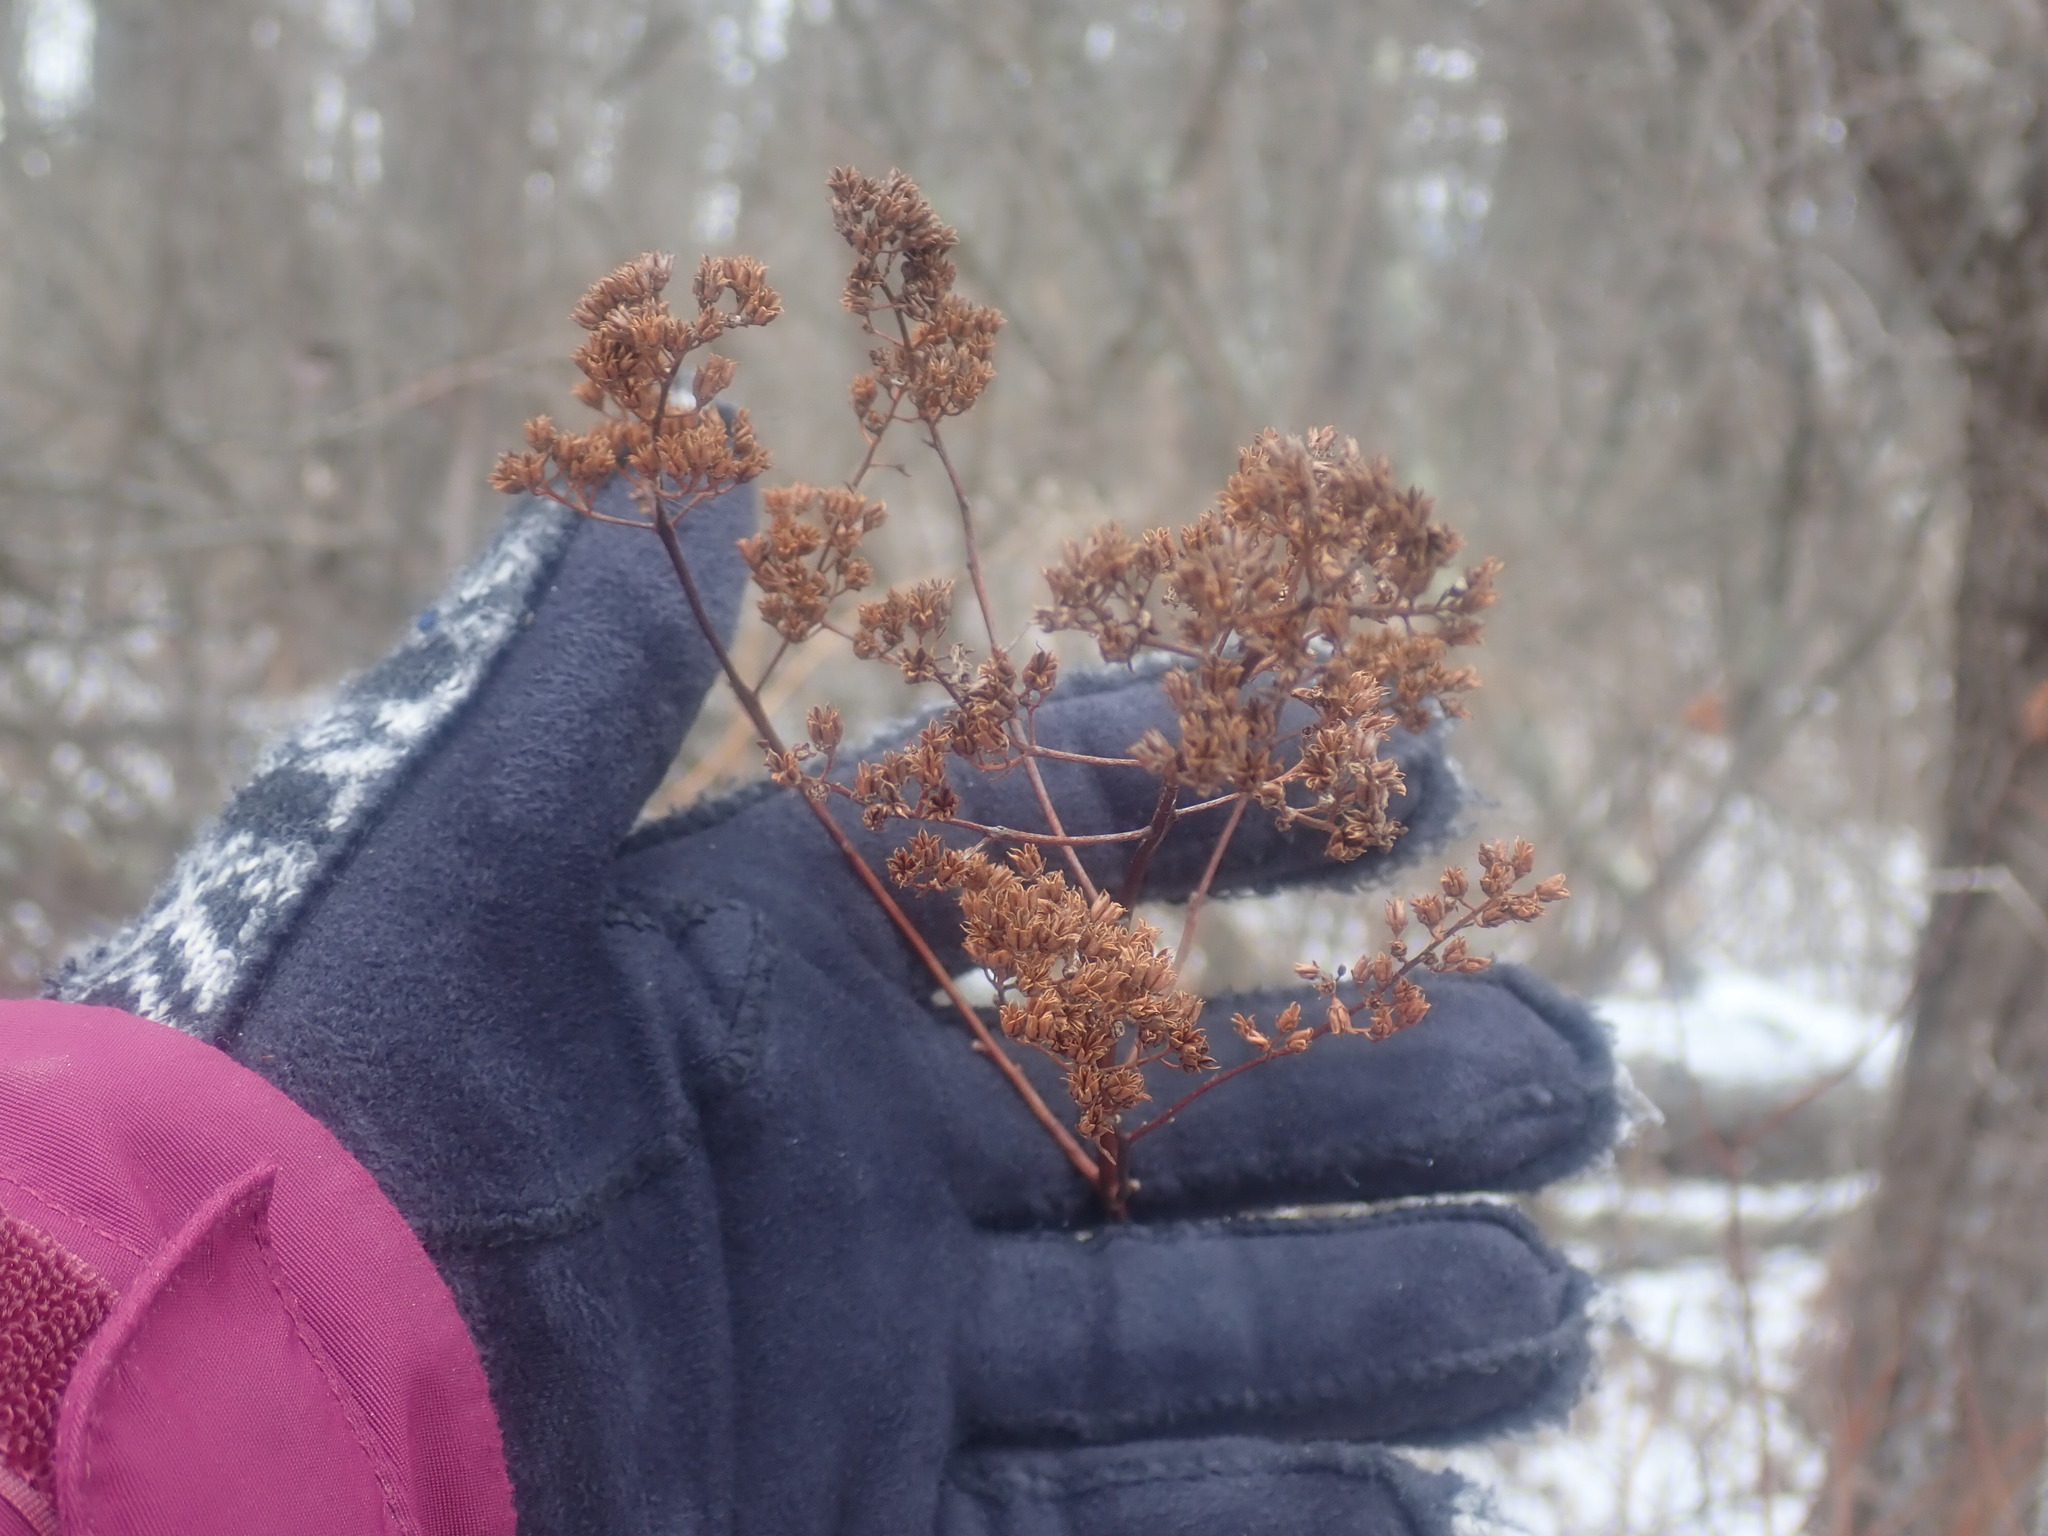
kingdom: Plantae
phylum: Tracheophyta
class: Magnoliopsida
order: Rosales
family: Rosaceae
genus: Spiraea
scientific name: Spiraea alba
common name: Pale bridewort
